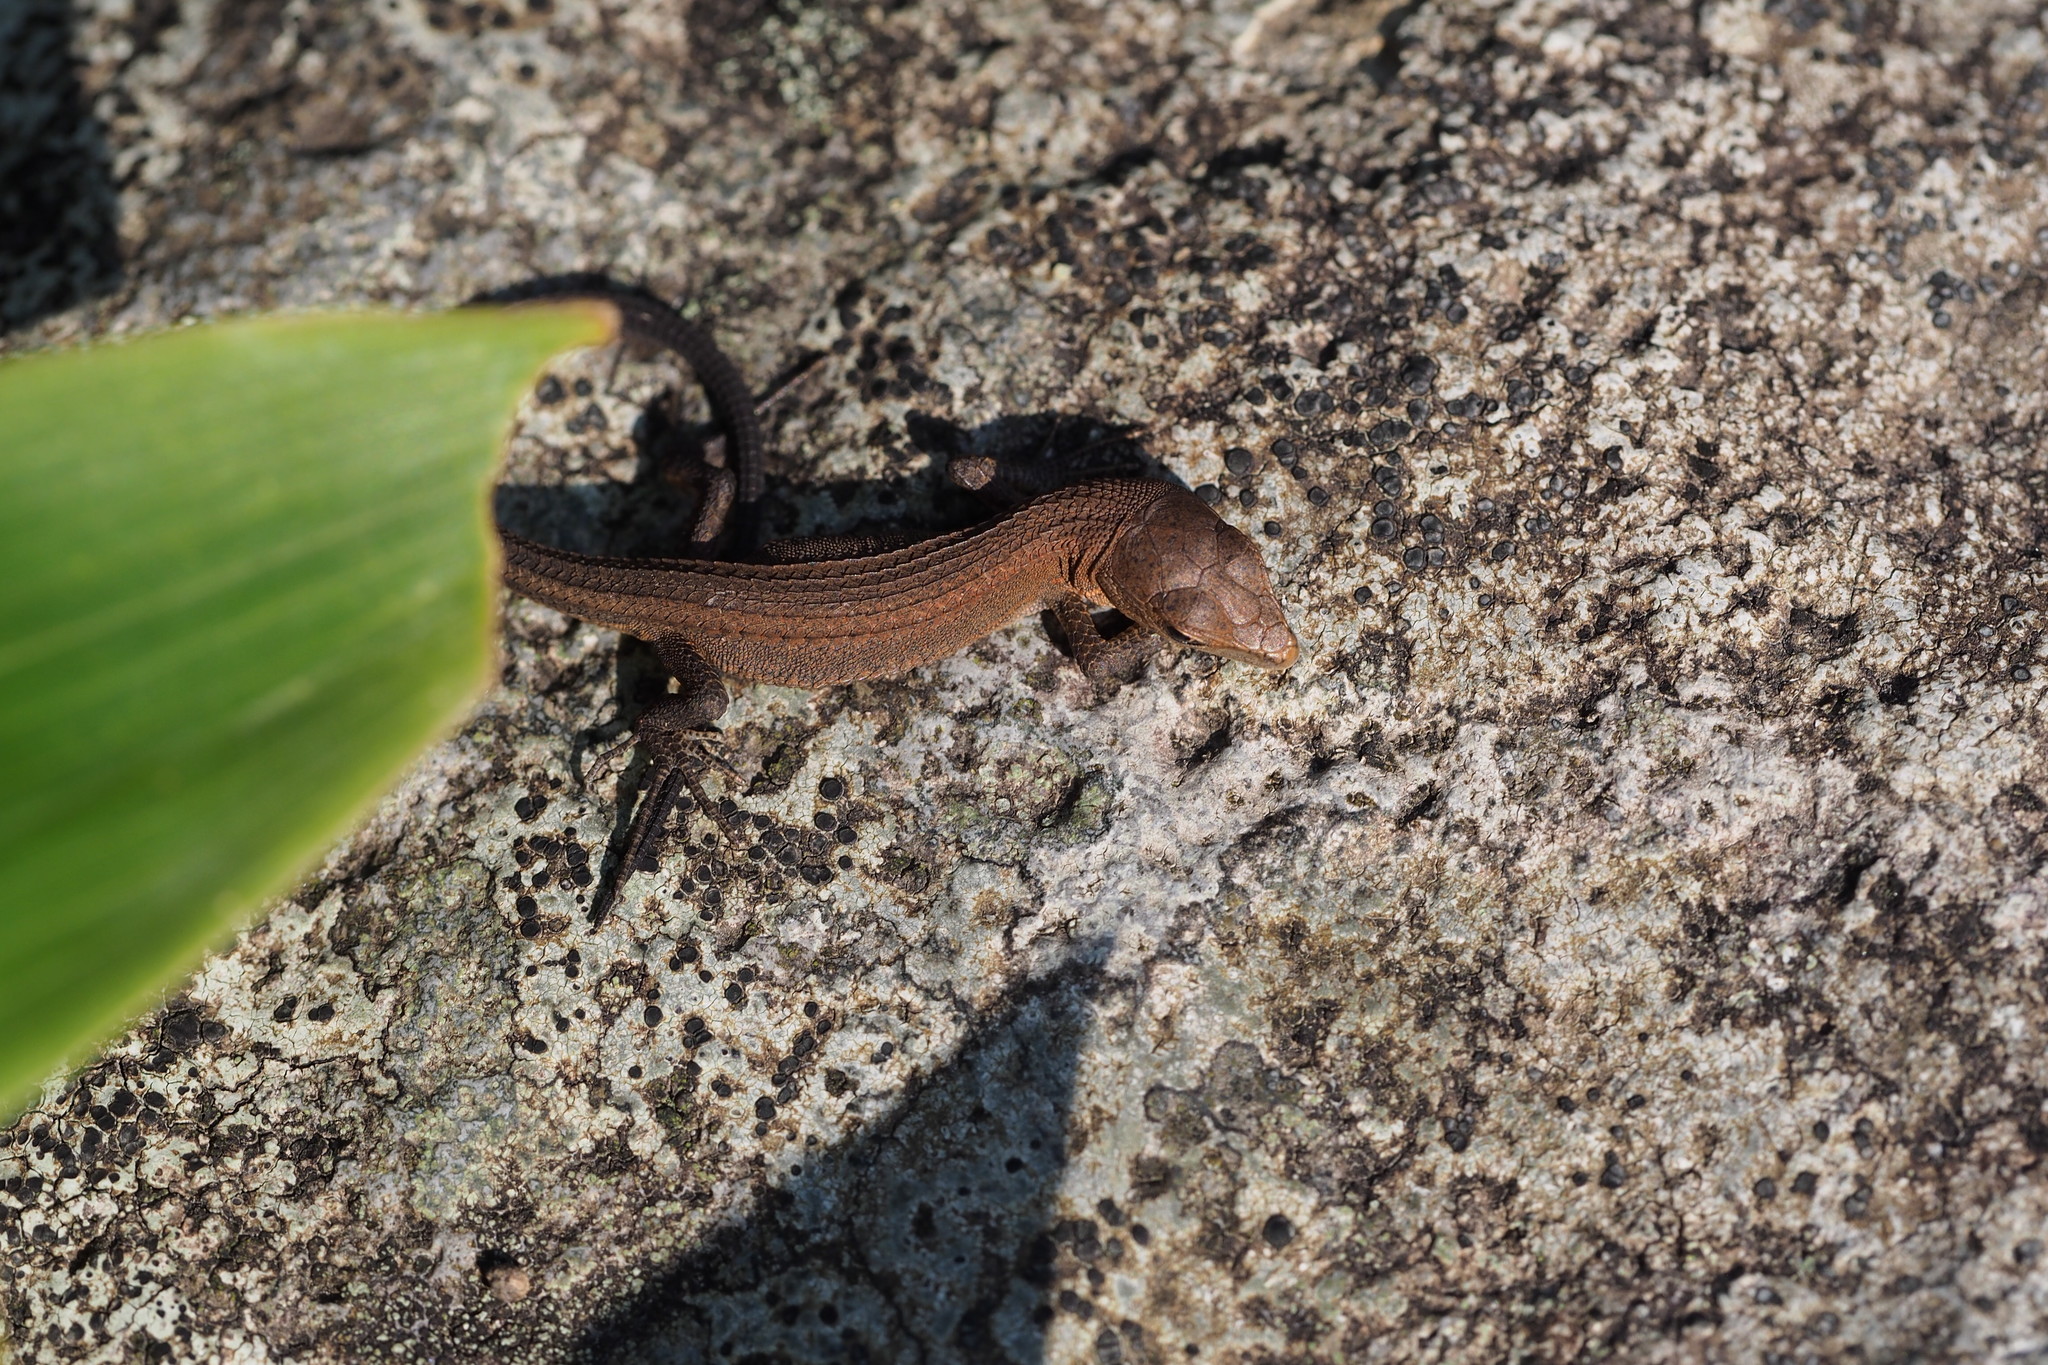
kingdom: Animalia
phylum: Chordata
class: Squamata
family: Lacertidae
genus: Takydromus
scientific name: Takydromus tachydromoides
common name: Japanese grass lizard
